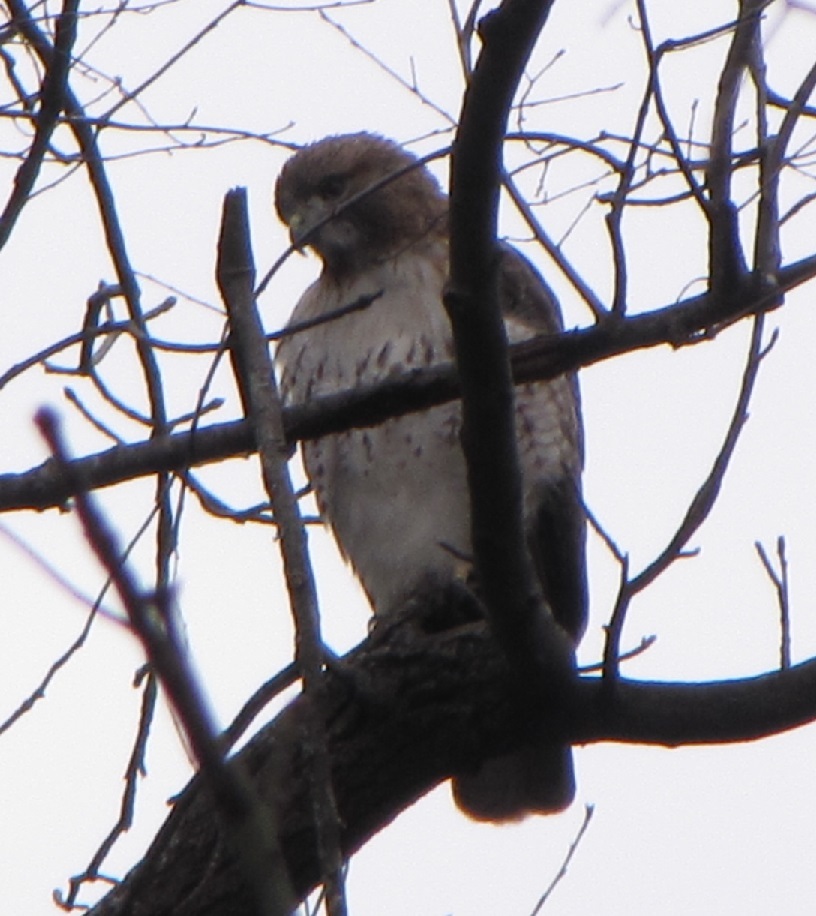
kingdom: Animalia
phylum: Chordata
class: Aves
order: Accipitriformes
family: Accipitridae
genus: Buteo
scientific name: Buteo jamaicensis
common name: Red-tailed hawk
